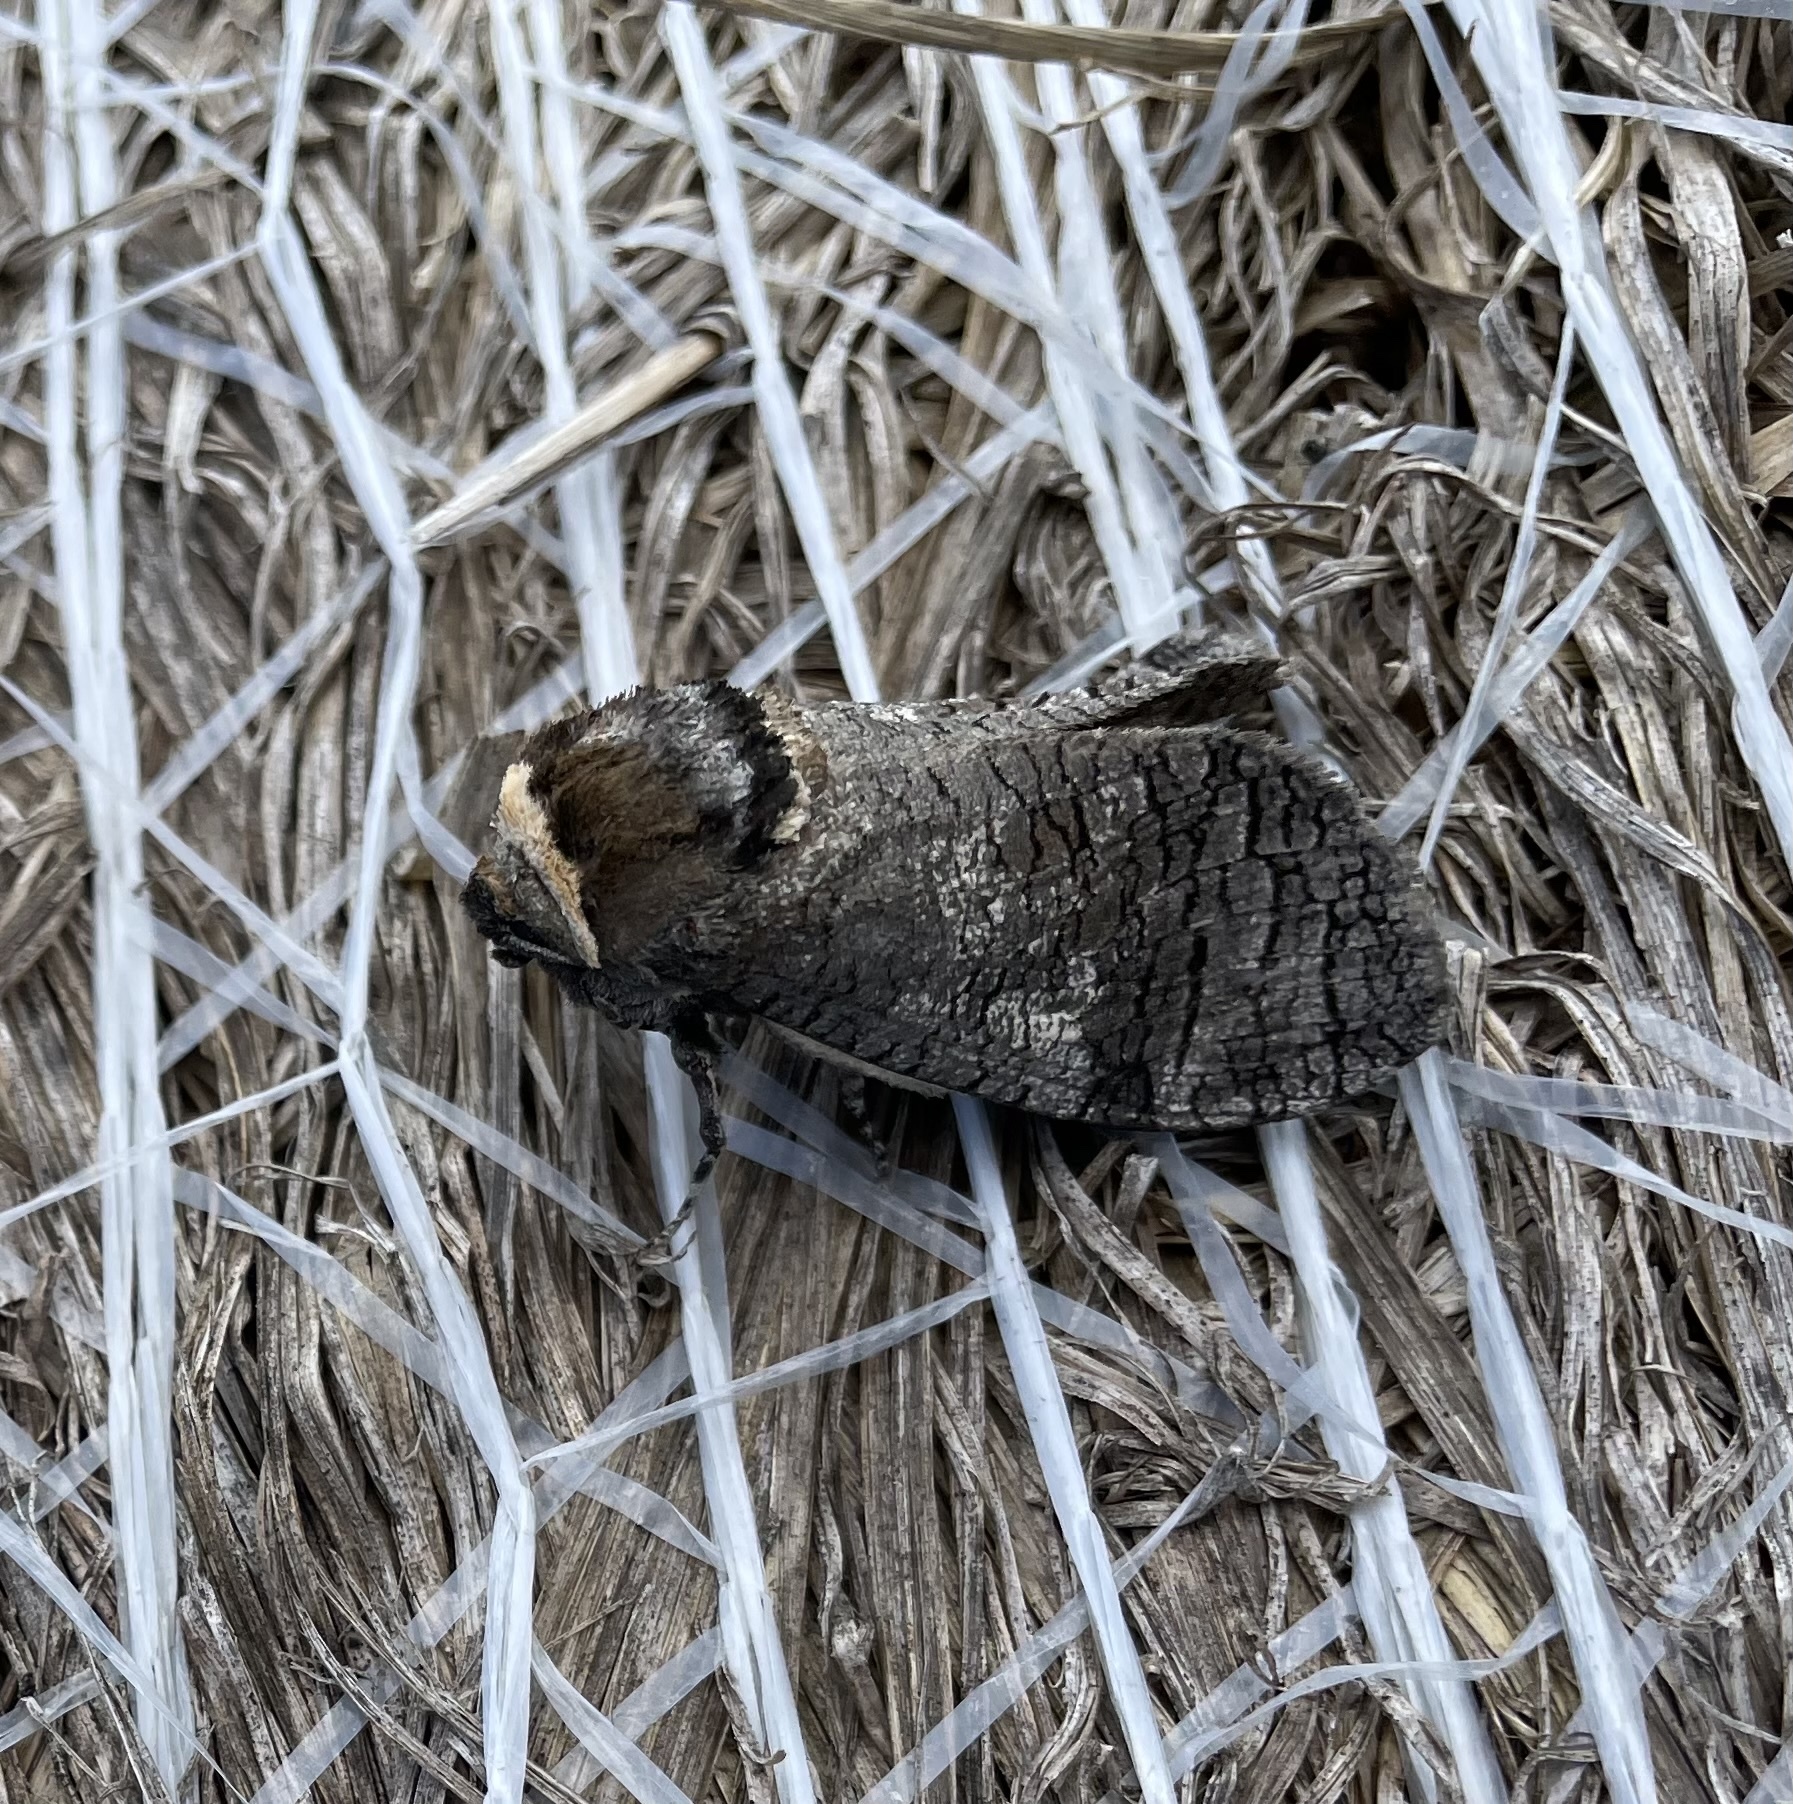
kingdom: Animalia
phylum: Arthropoda
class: Insecta
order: Lepidoptera
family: Cossidae
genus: Cossus
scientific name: Cossus cossus
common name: Goat moth
